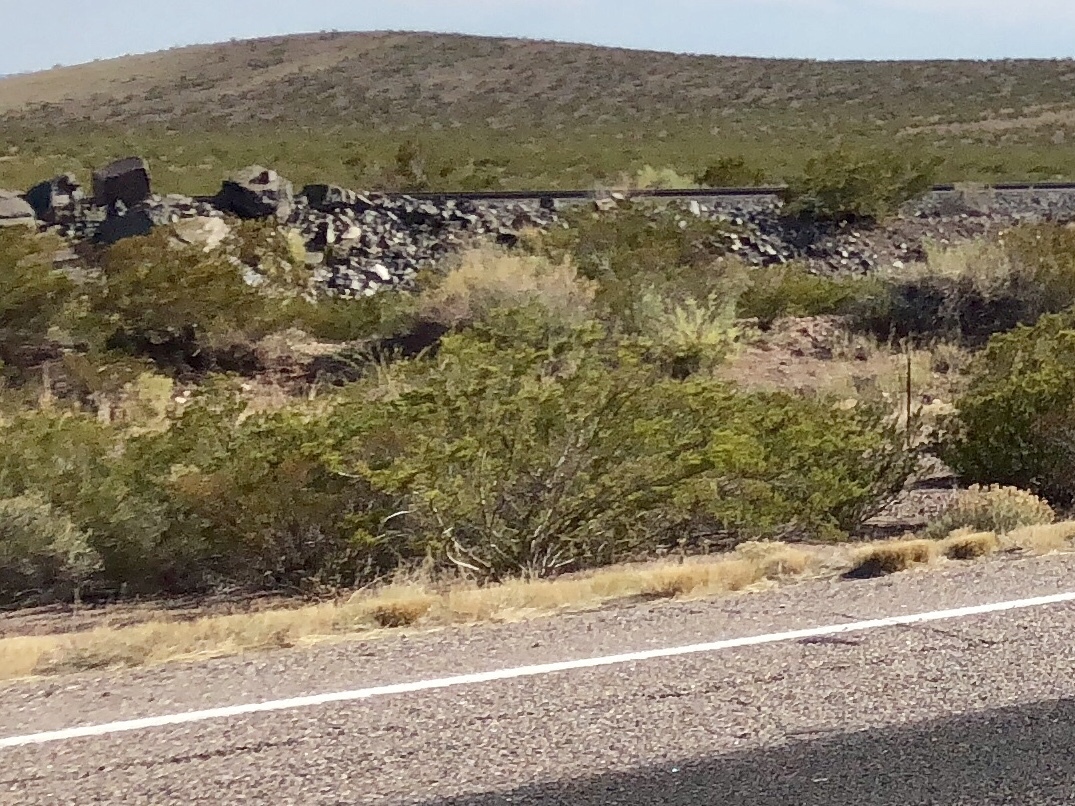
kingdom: Plantae
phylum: Tracheophyta
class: Magnoliopsida
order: Zygophyllales
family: Zygophyllaceae
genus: Larrea
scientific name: Larrea tridentata
